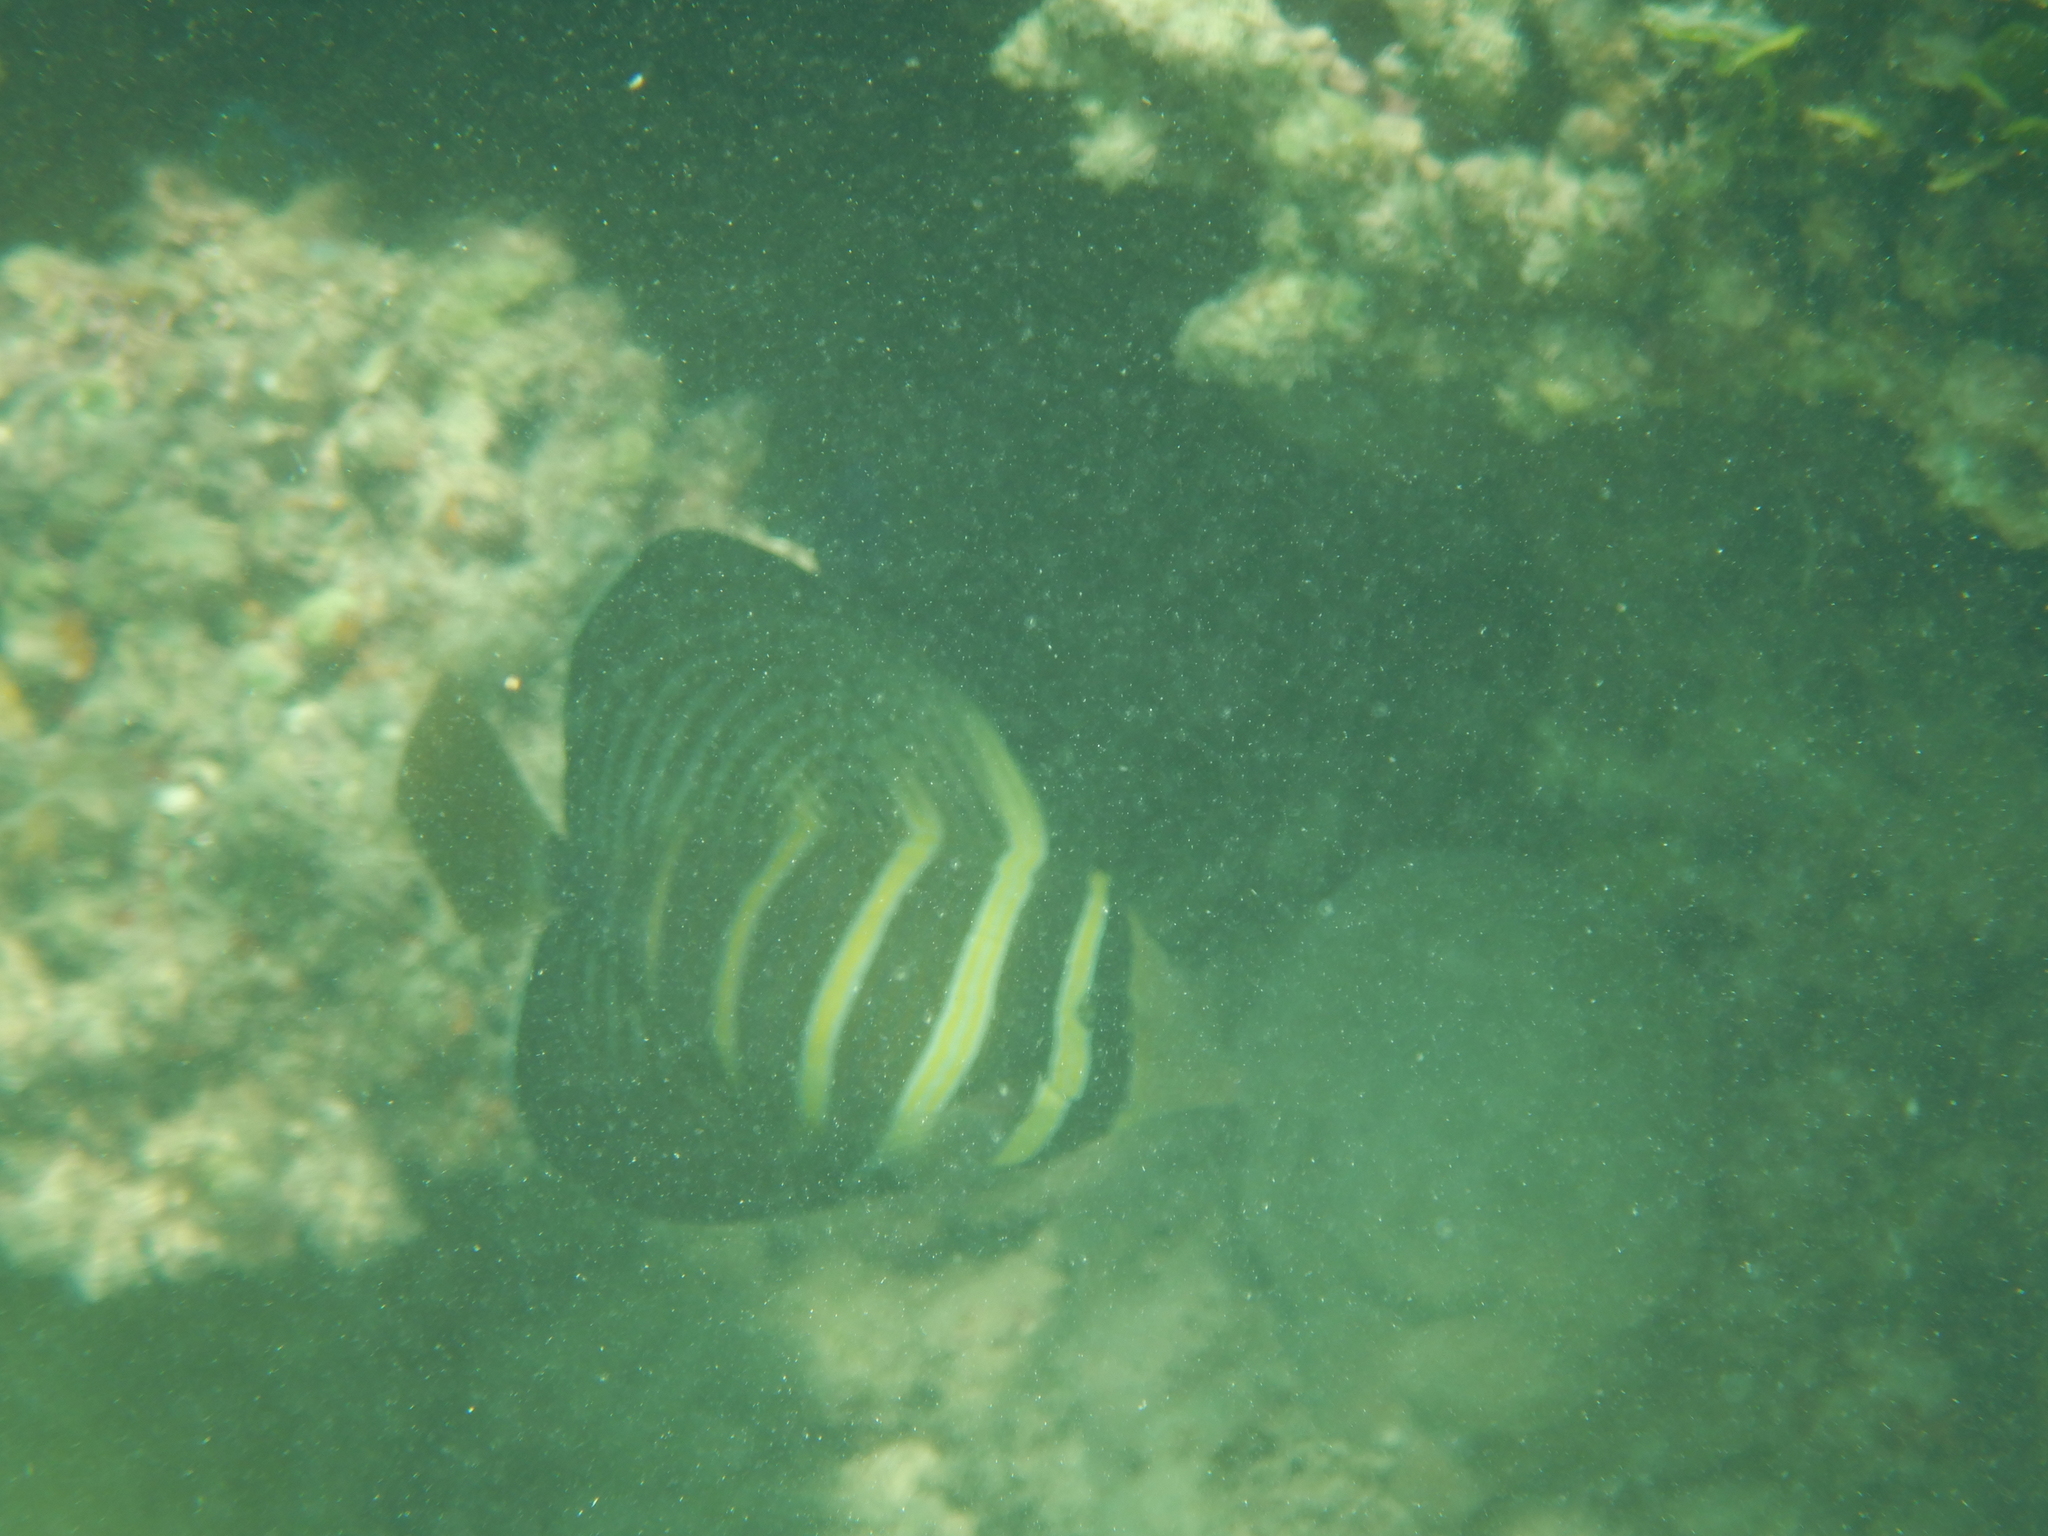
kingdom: Animalia
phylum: Chordata
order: Perciformes
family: Acanthuridae
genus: Zebrasoma
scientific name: Zebrasoma veliferum
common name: Sailfin surgeonfish
